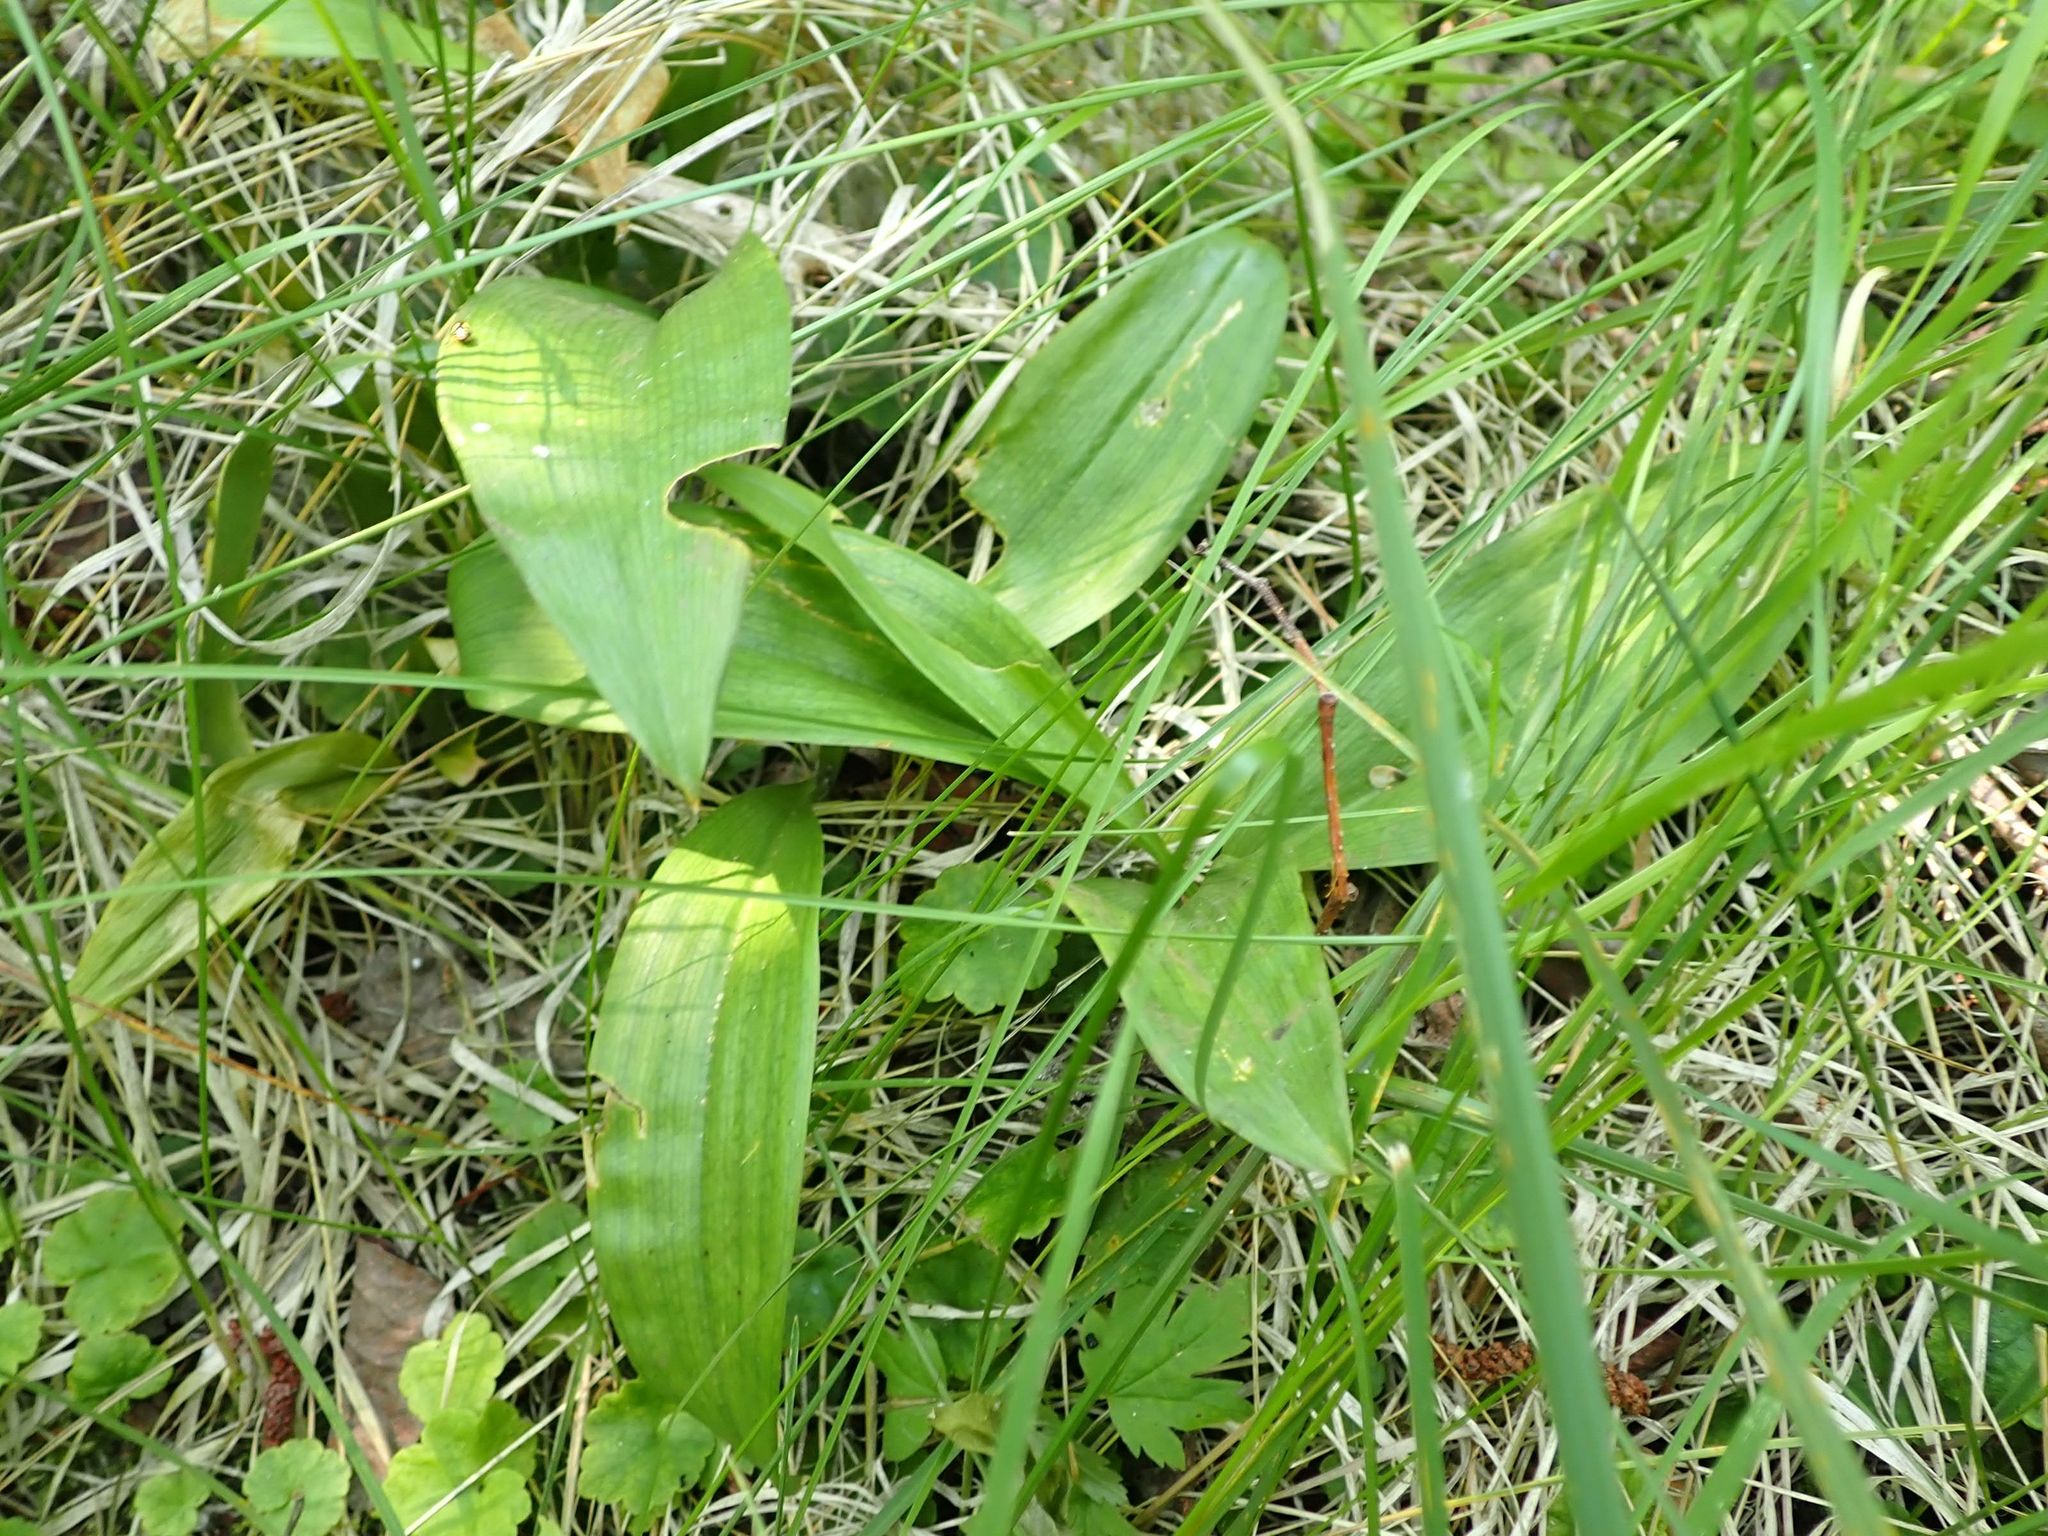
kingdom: Plantae
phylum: Tracheophyta
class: Liliopsida
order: Asparagales
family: Asparagaceae
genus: Maianthemum
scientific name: Maianthemum trifolium
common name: Swamp false solomon's seal
